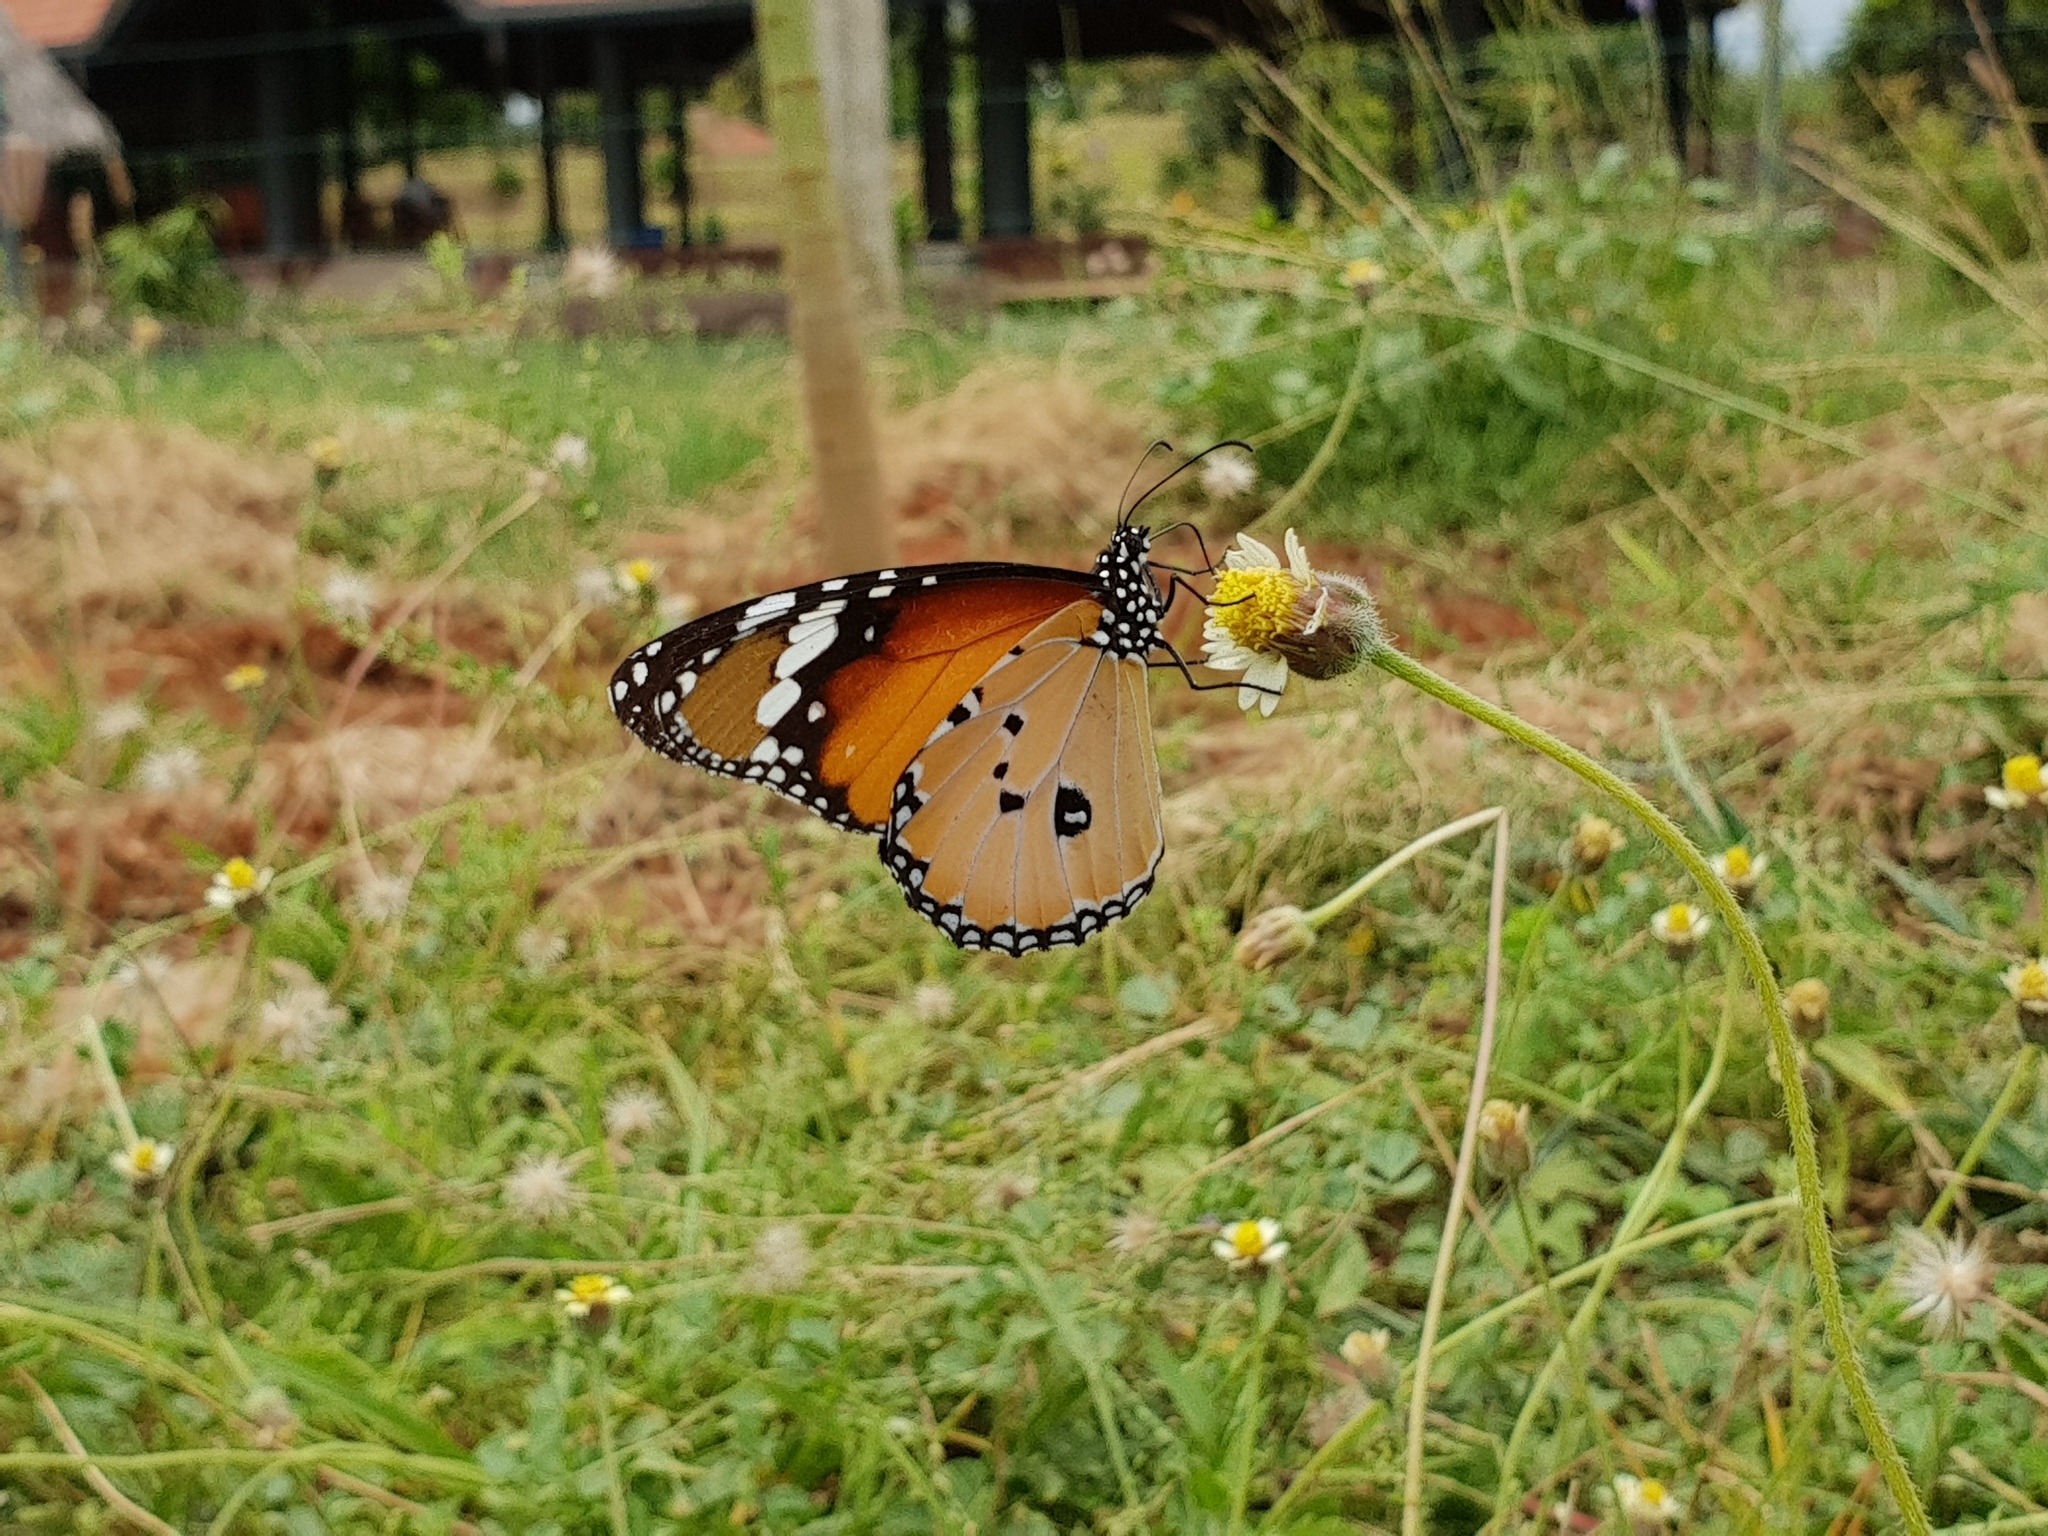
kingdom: Animalia
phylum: Arthropoda
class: Insecta
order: Lepidoptera
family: Nymphalidae
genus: Danaus
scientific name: Danaus chrysippus
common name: Plain tiger
